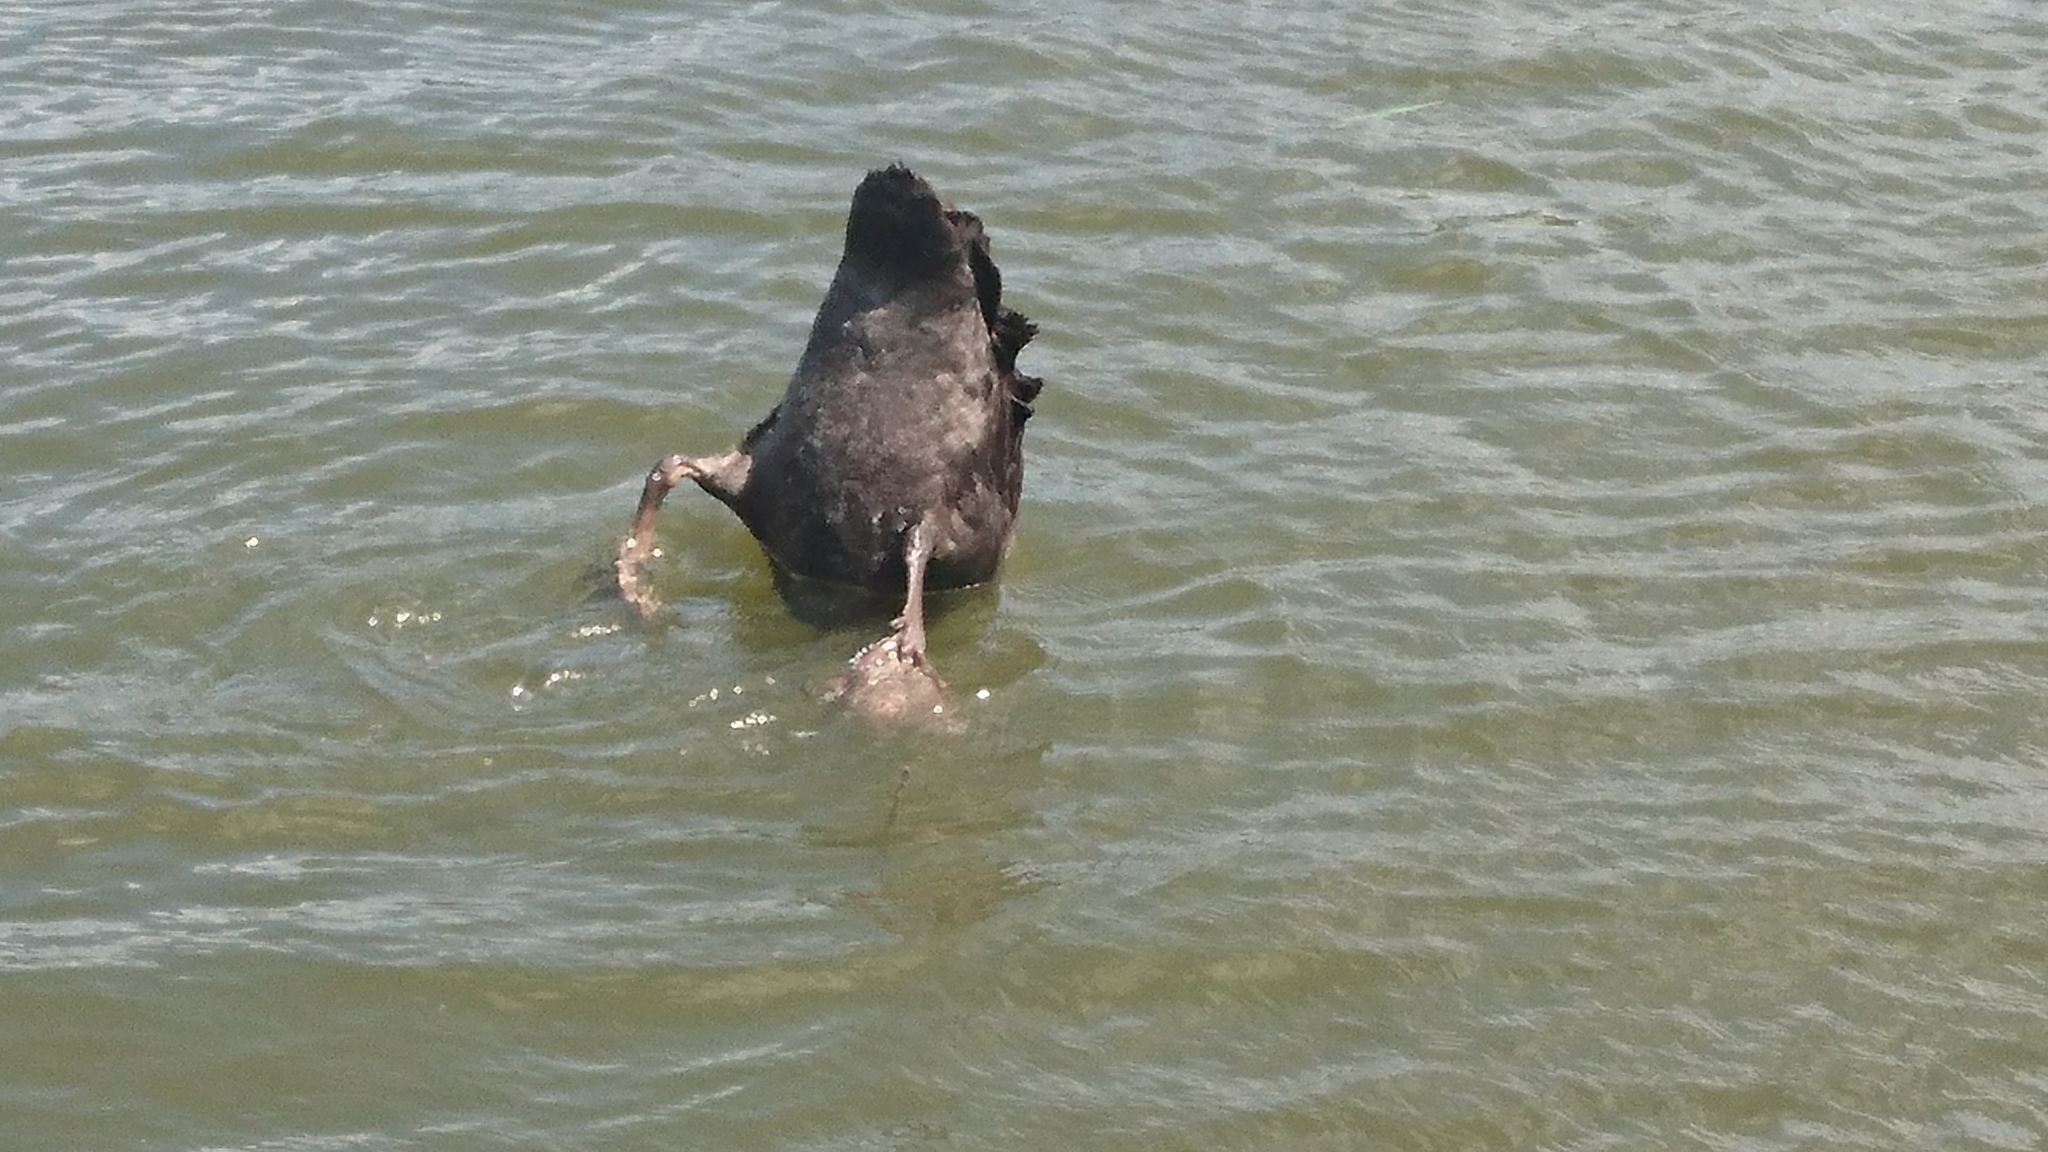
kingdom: Animalia
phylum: Chordata
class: Aves
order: Anseriformes
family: Anatidae
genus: Cygnus
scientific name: Cygnus atratus
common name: Black swan
